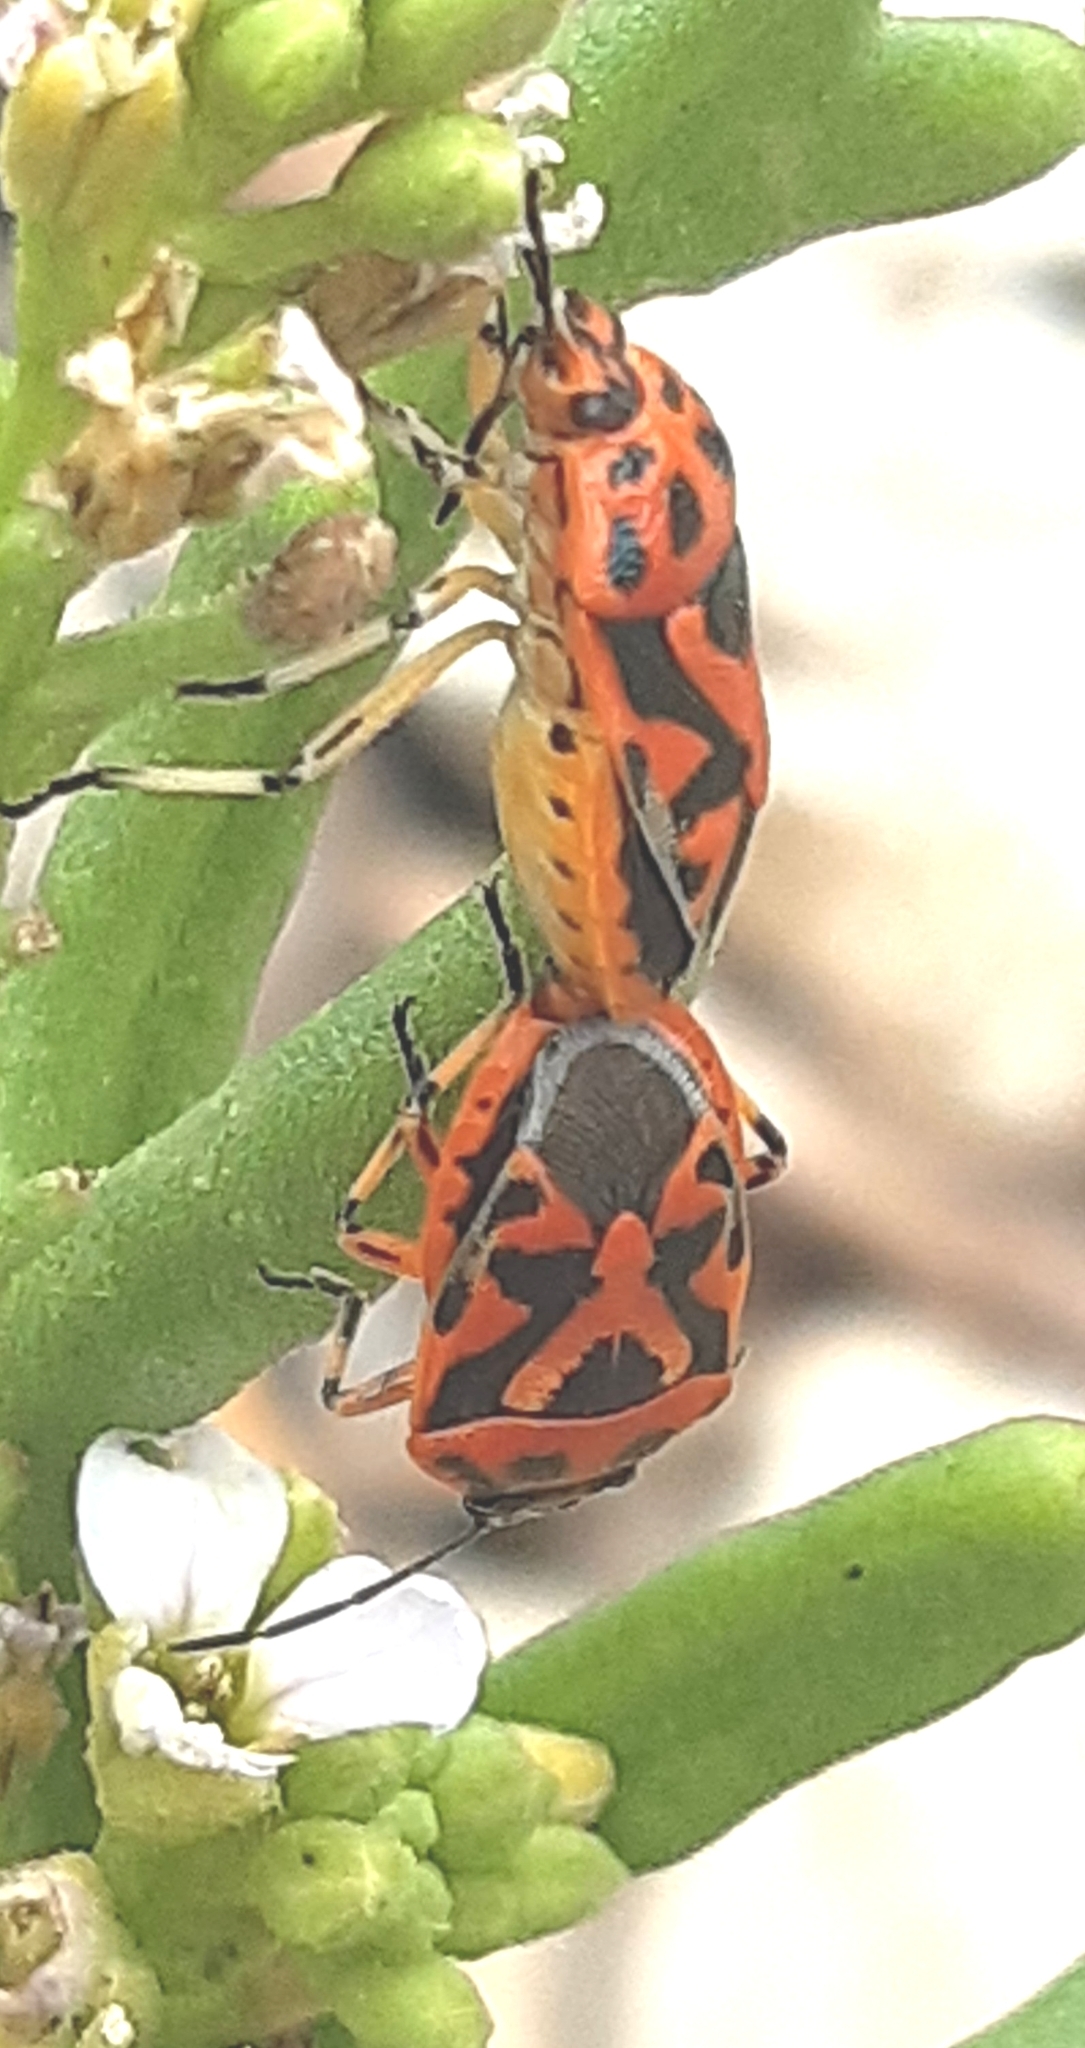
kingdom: Animalia
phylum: Arthropoda
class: Insecta
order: Hemiptera
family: Pentatomidae
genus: Eurydema
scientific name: Eurydema ornata
